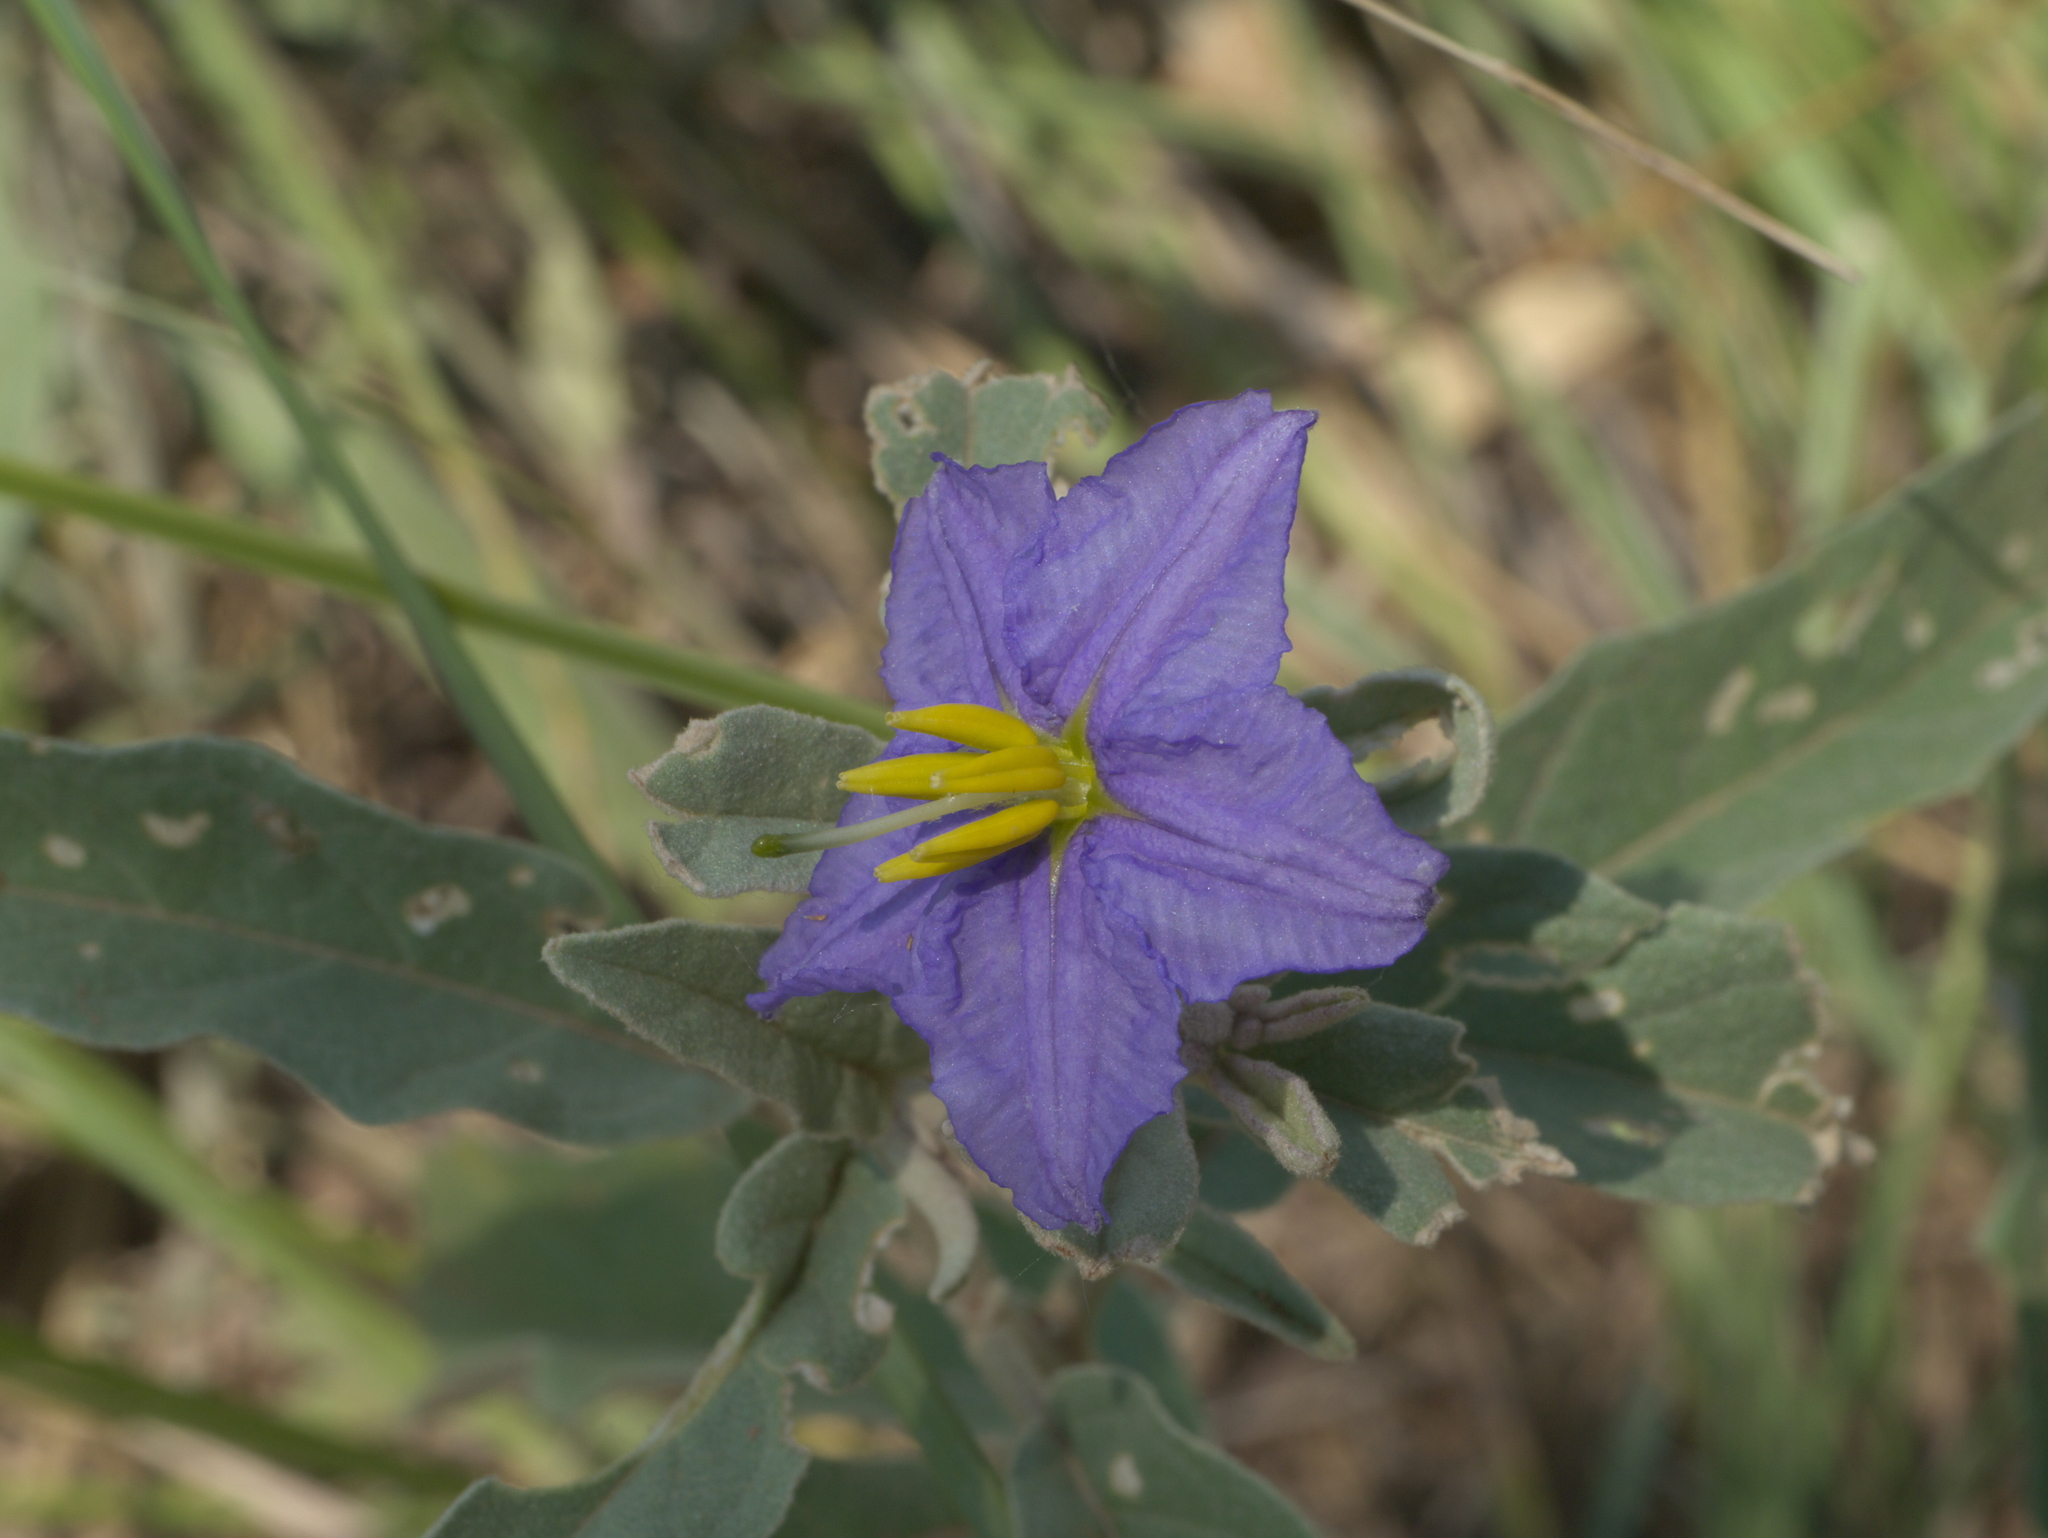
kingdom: Plantae
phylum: Tracheophyta
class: Magnoliopsida
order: Solanales
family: Solanaceae
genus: Solanum
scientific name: Solanum elaeagnifolium
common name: Silverleaf nightshade
